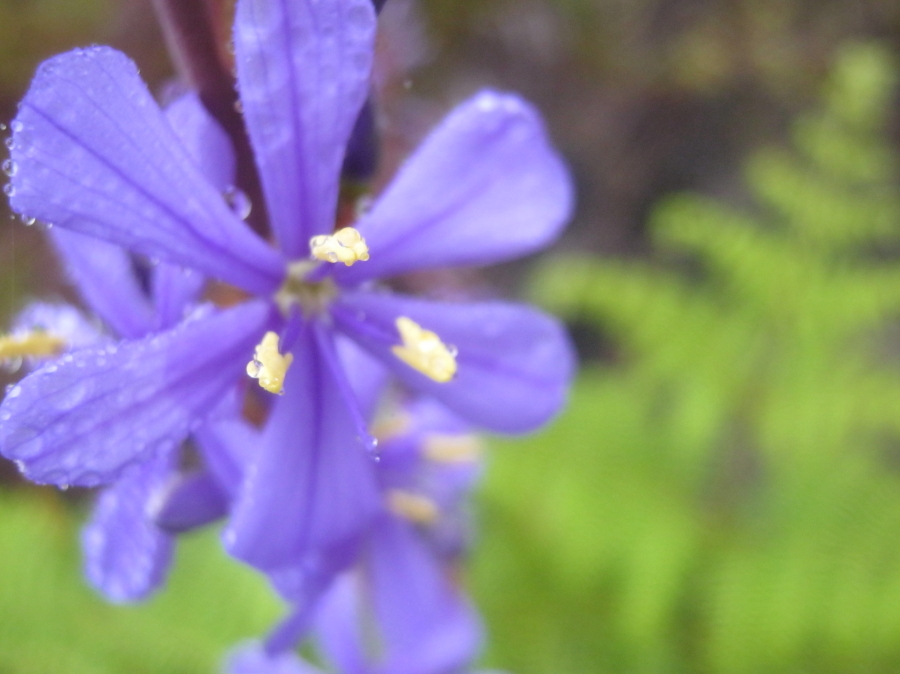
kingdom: Plantae
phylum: Tracheophyta
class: Liliopsida
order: Asparagales
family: Iridaceae
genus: Aristea
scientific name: Aristea bakeri
